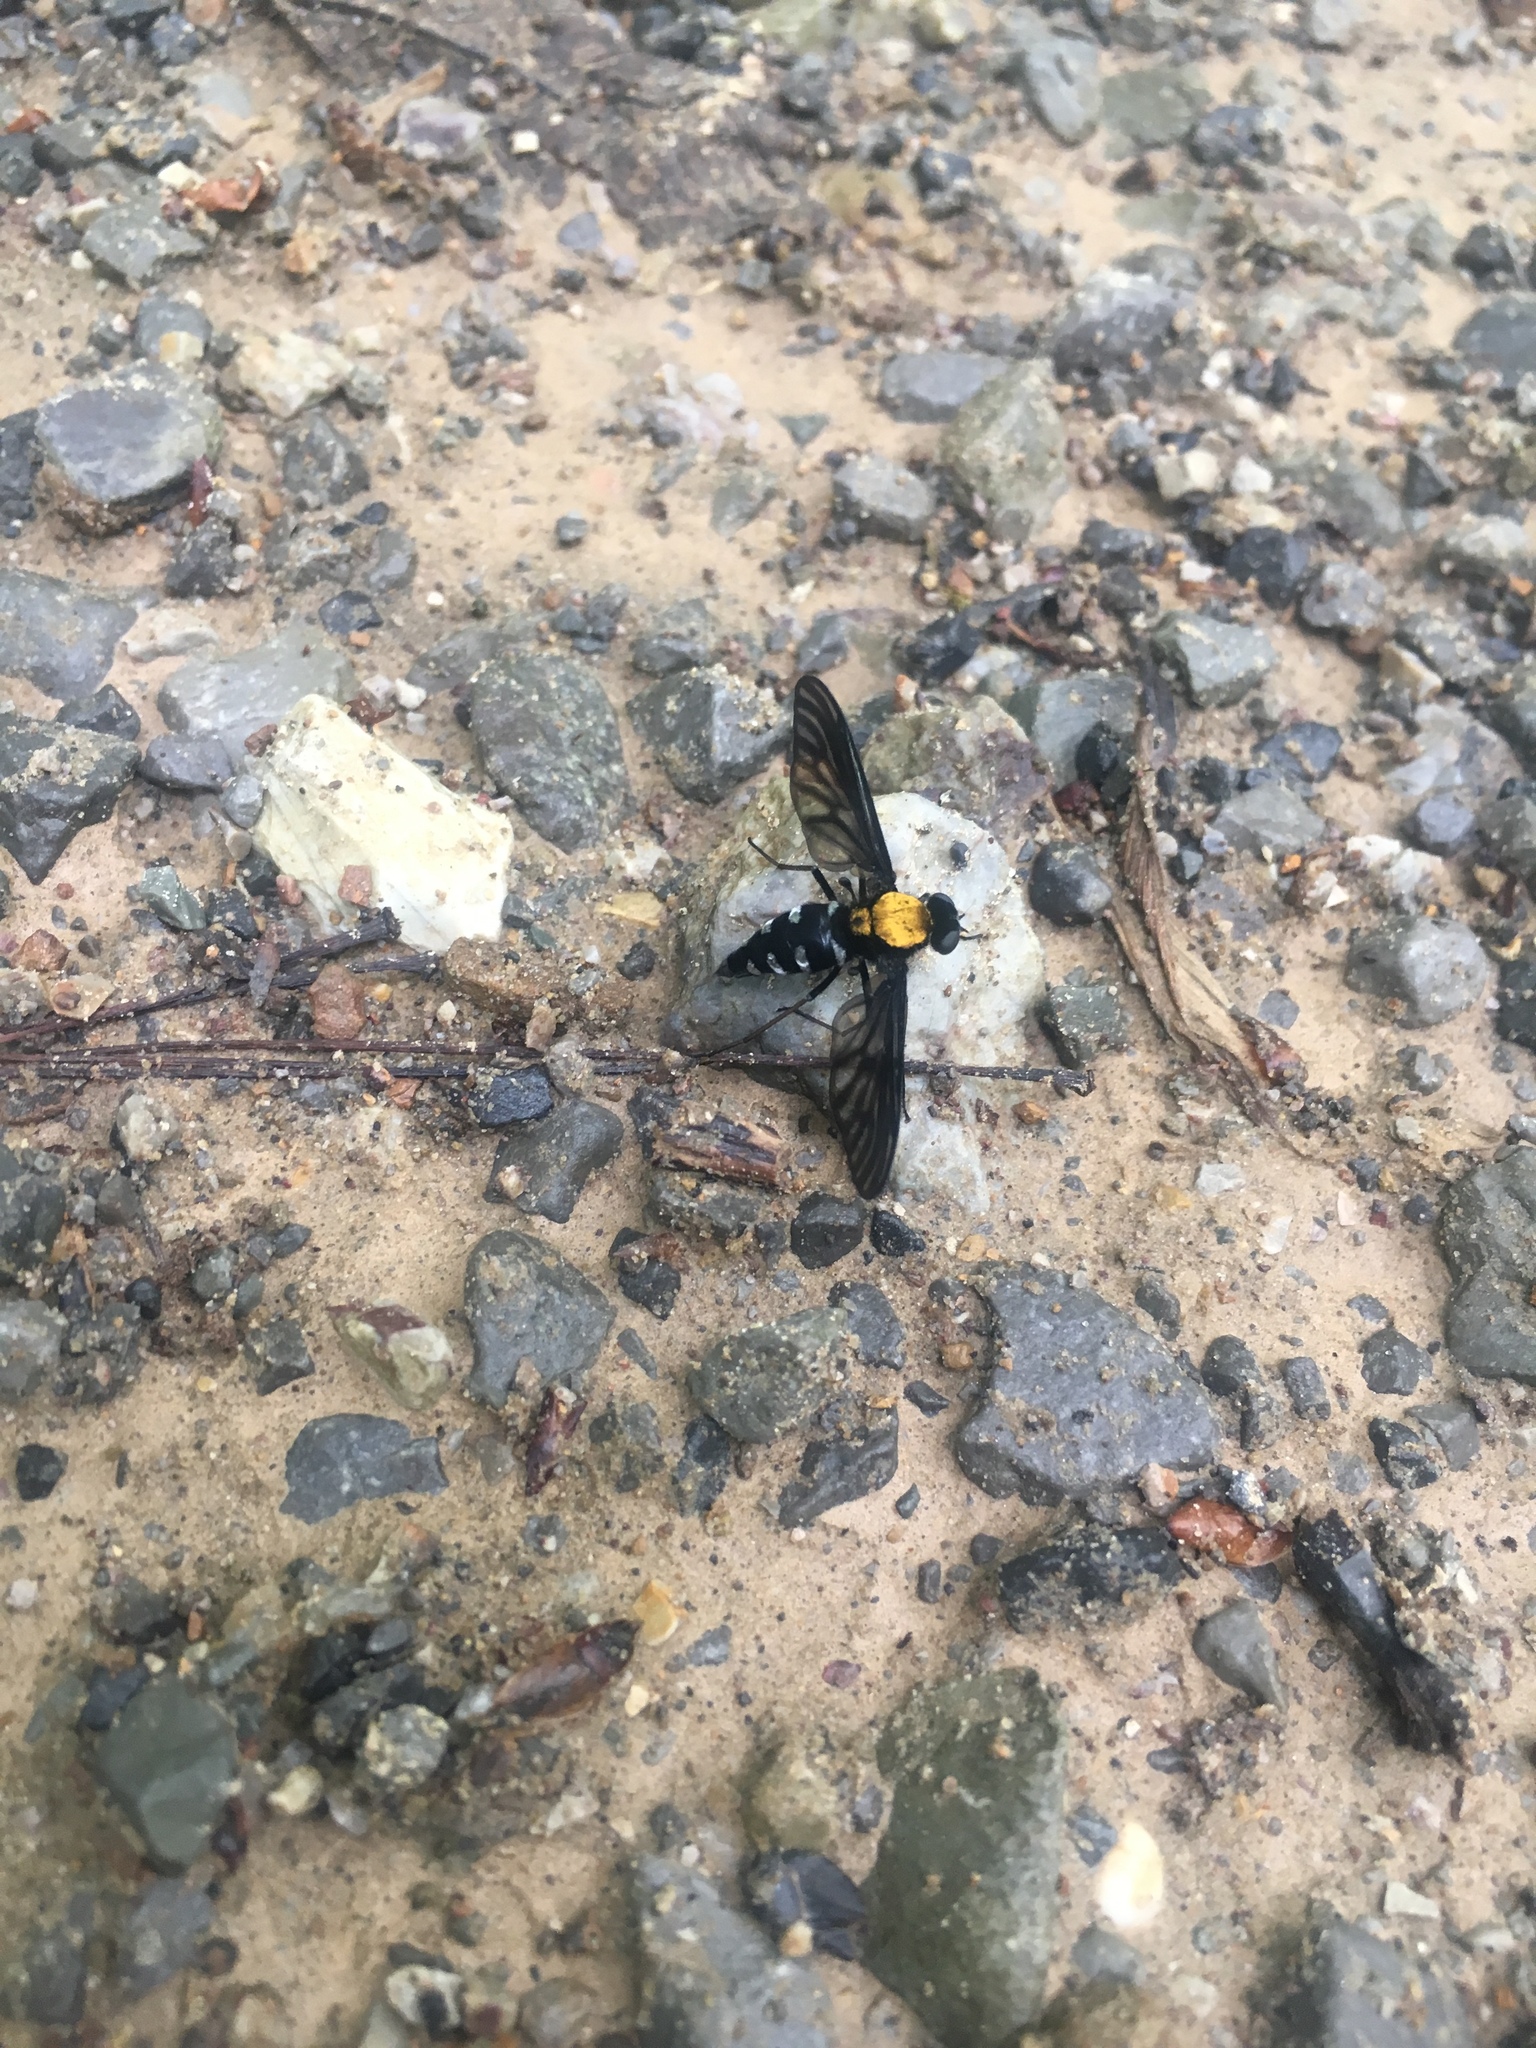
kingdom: Animalia
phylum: Arthropoda
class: Insecta
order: Diptera
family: Rhagionidae
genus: Chrysopilus
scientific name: Chrysopilus thoracicus
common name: Golden-backed snipe fly
